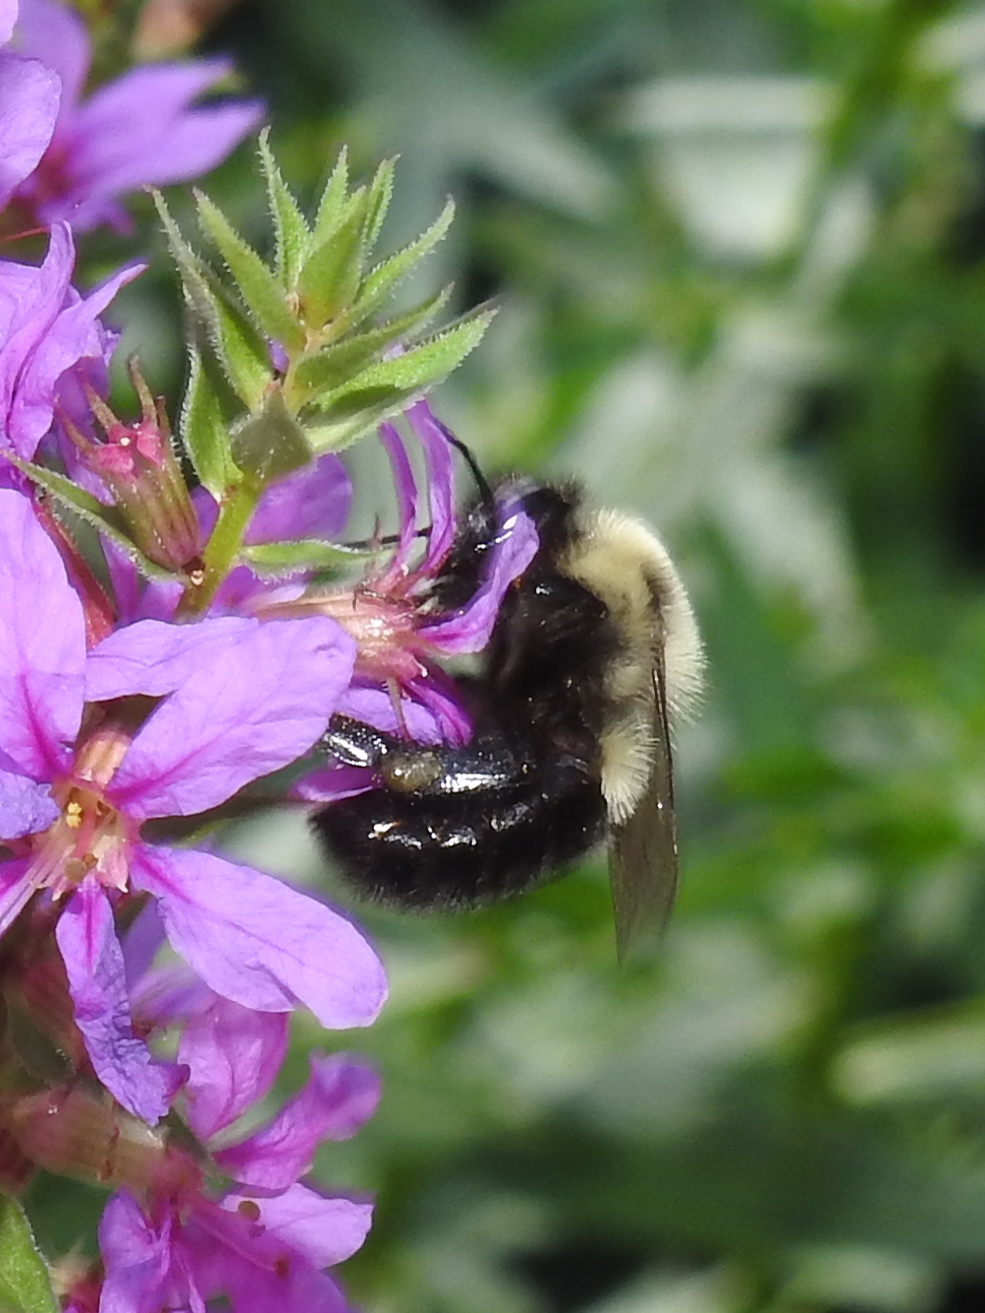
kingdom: Animalia
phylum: Arthropoda
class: Insecta
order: Hymenoptera
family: Apidae
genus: Bombus
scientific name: Bombus impatiens
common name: Common eastern bumble bee
